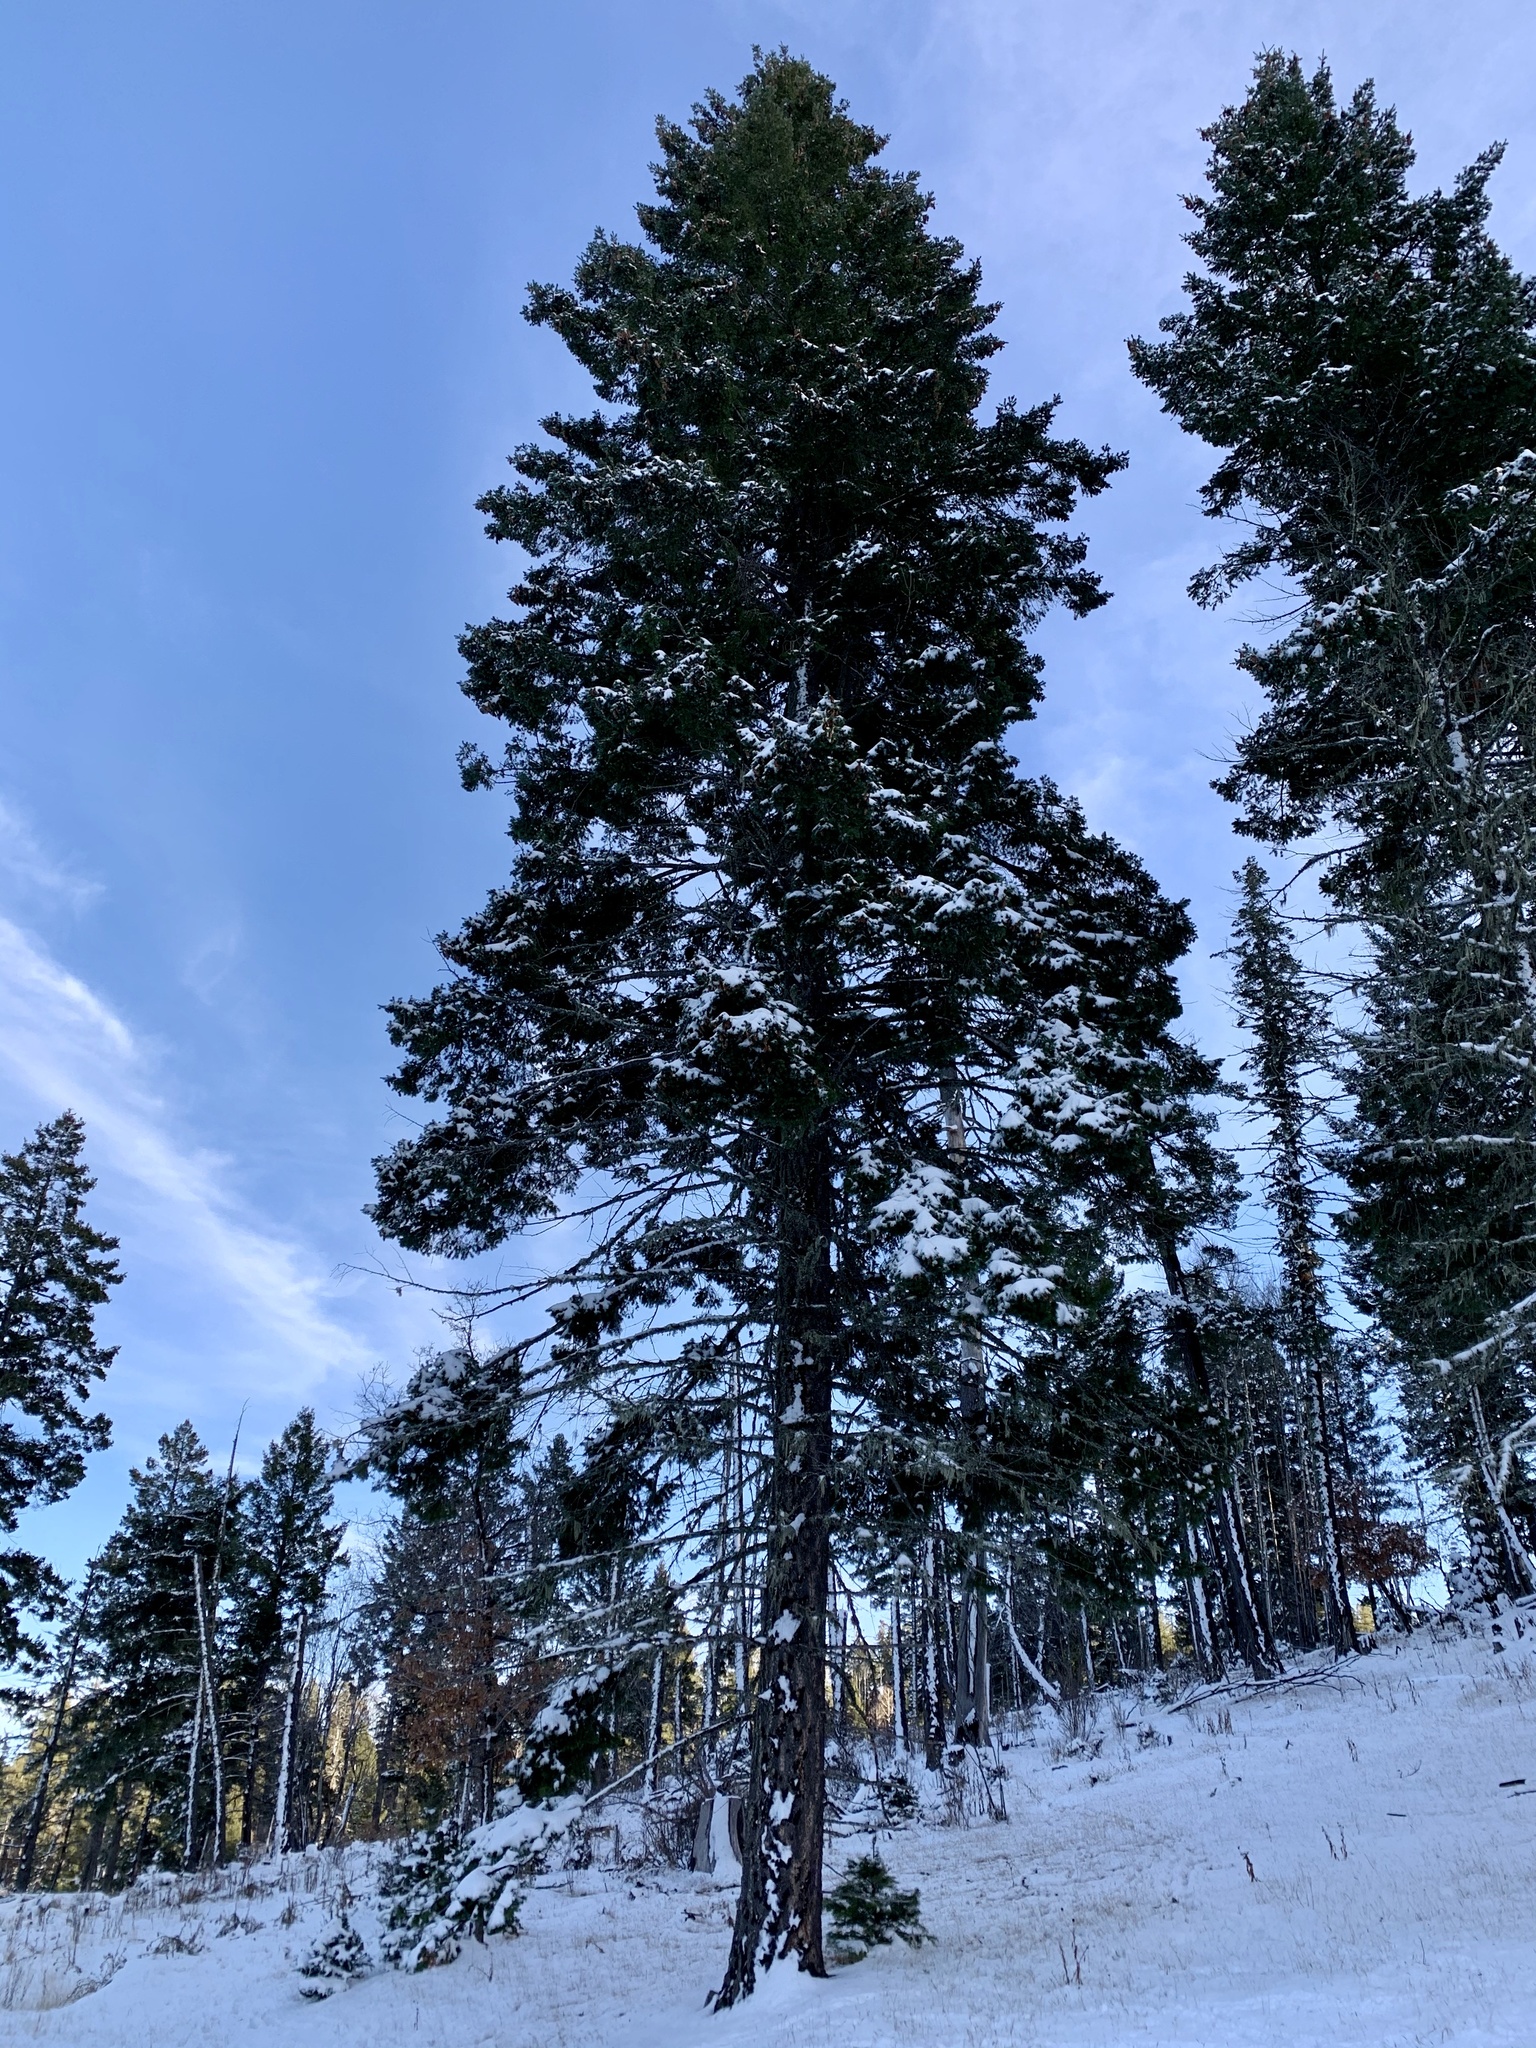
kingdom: Plantae
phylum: Tracheophyta
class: Pinopsida
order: Pinales
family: Pinaceae
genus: Pseudotsuga
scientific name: Pseudotsuga menziesii
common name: Douglas fir
